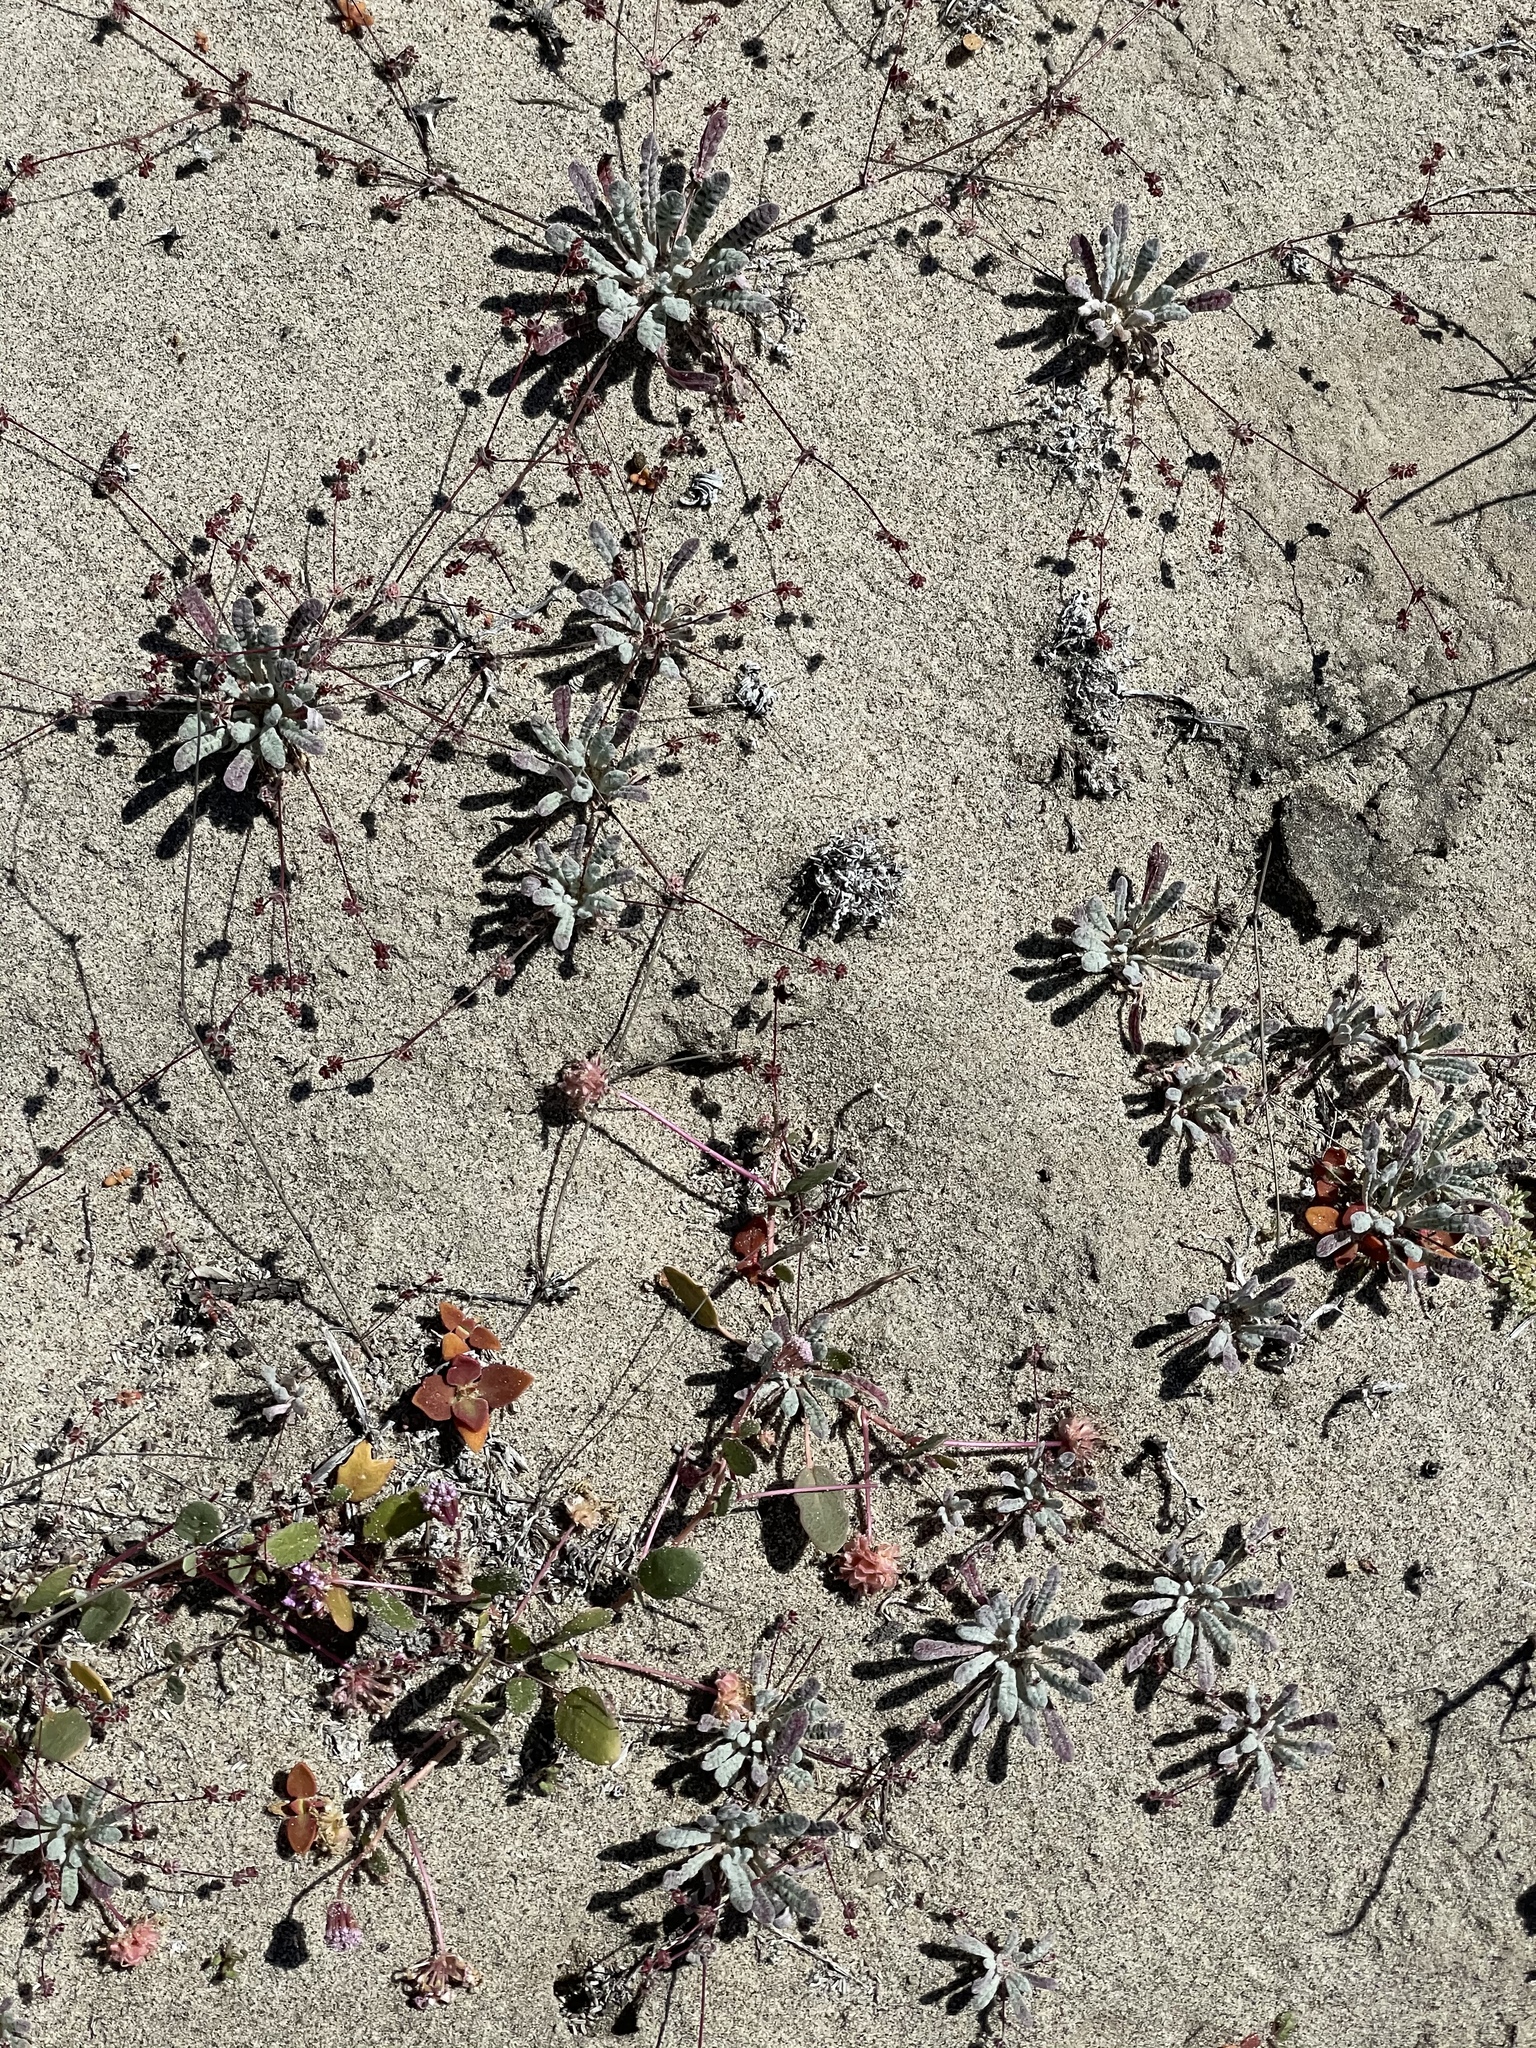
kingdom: Plantae
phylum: Tracheophyta
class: Magnoliopsida
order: Caryophyllales
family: Polygonaceae
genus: Nemacaulis
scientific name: Nemacaulis denudata
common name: Woolly-heads
